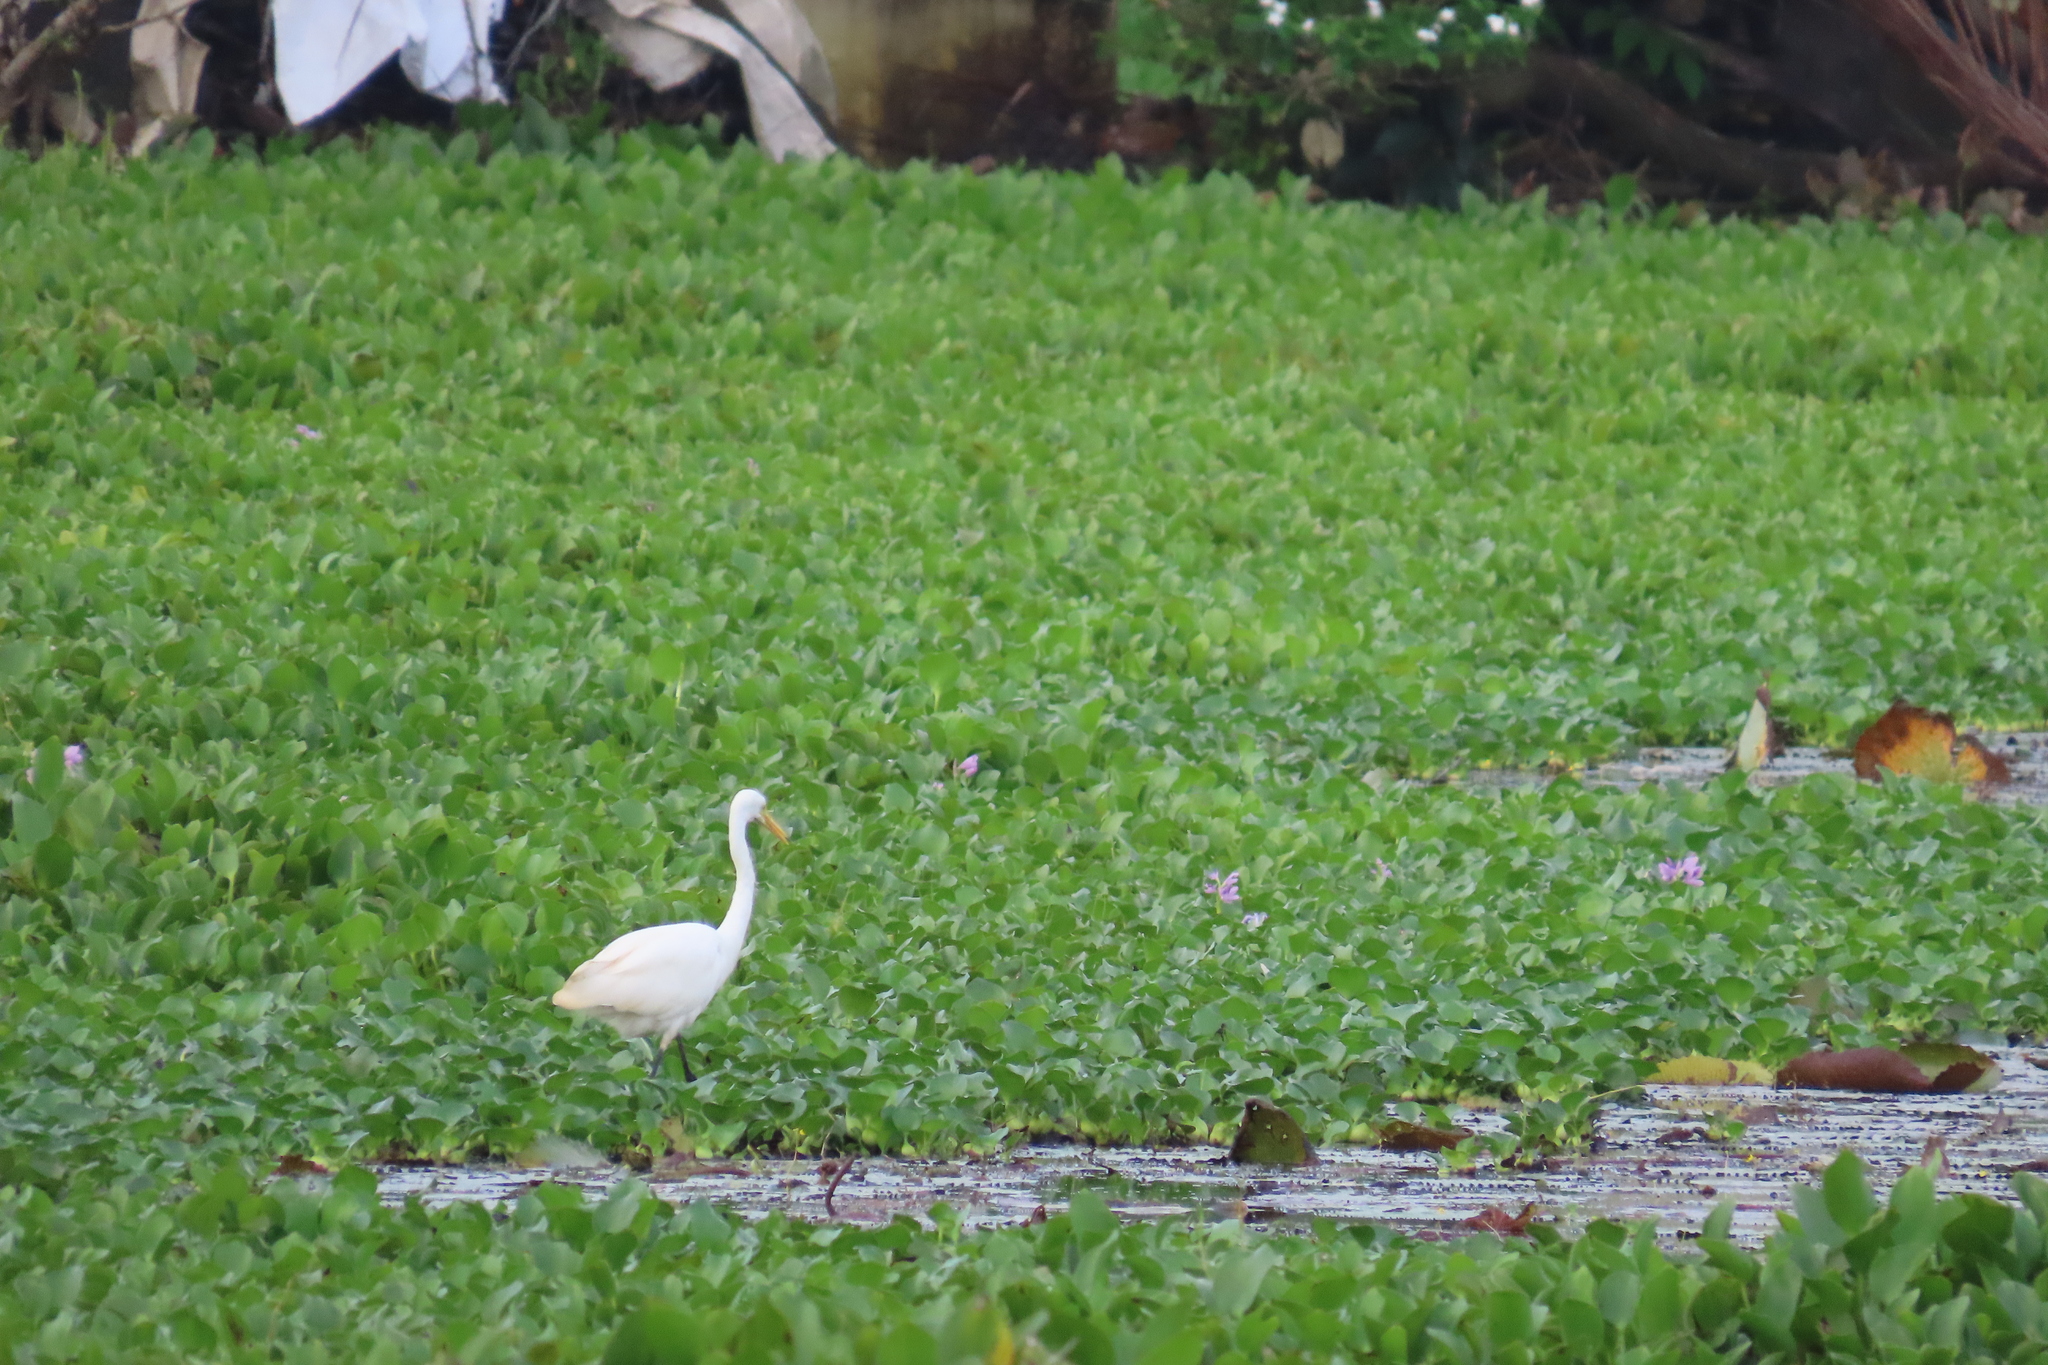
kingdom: Animalia
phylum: Chordata
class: Aves
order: Pelecaniformes
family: Ardeidae
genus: Egretta
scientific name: Egretta intermedia
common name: Intermediate egret
